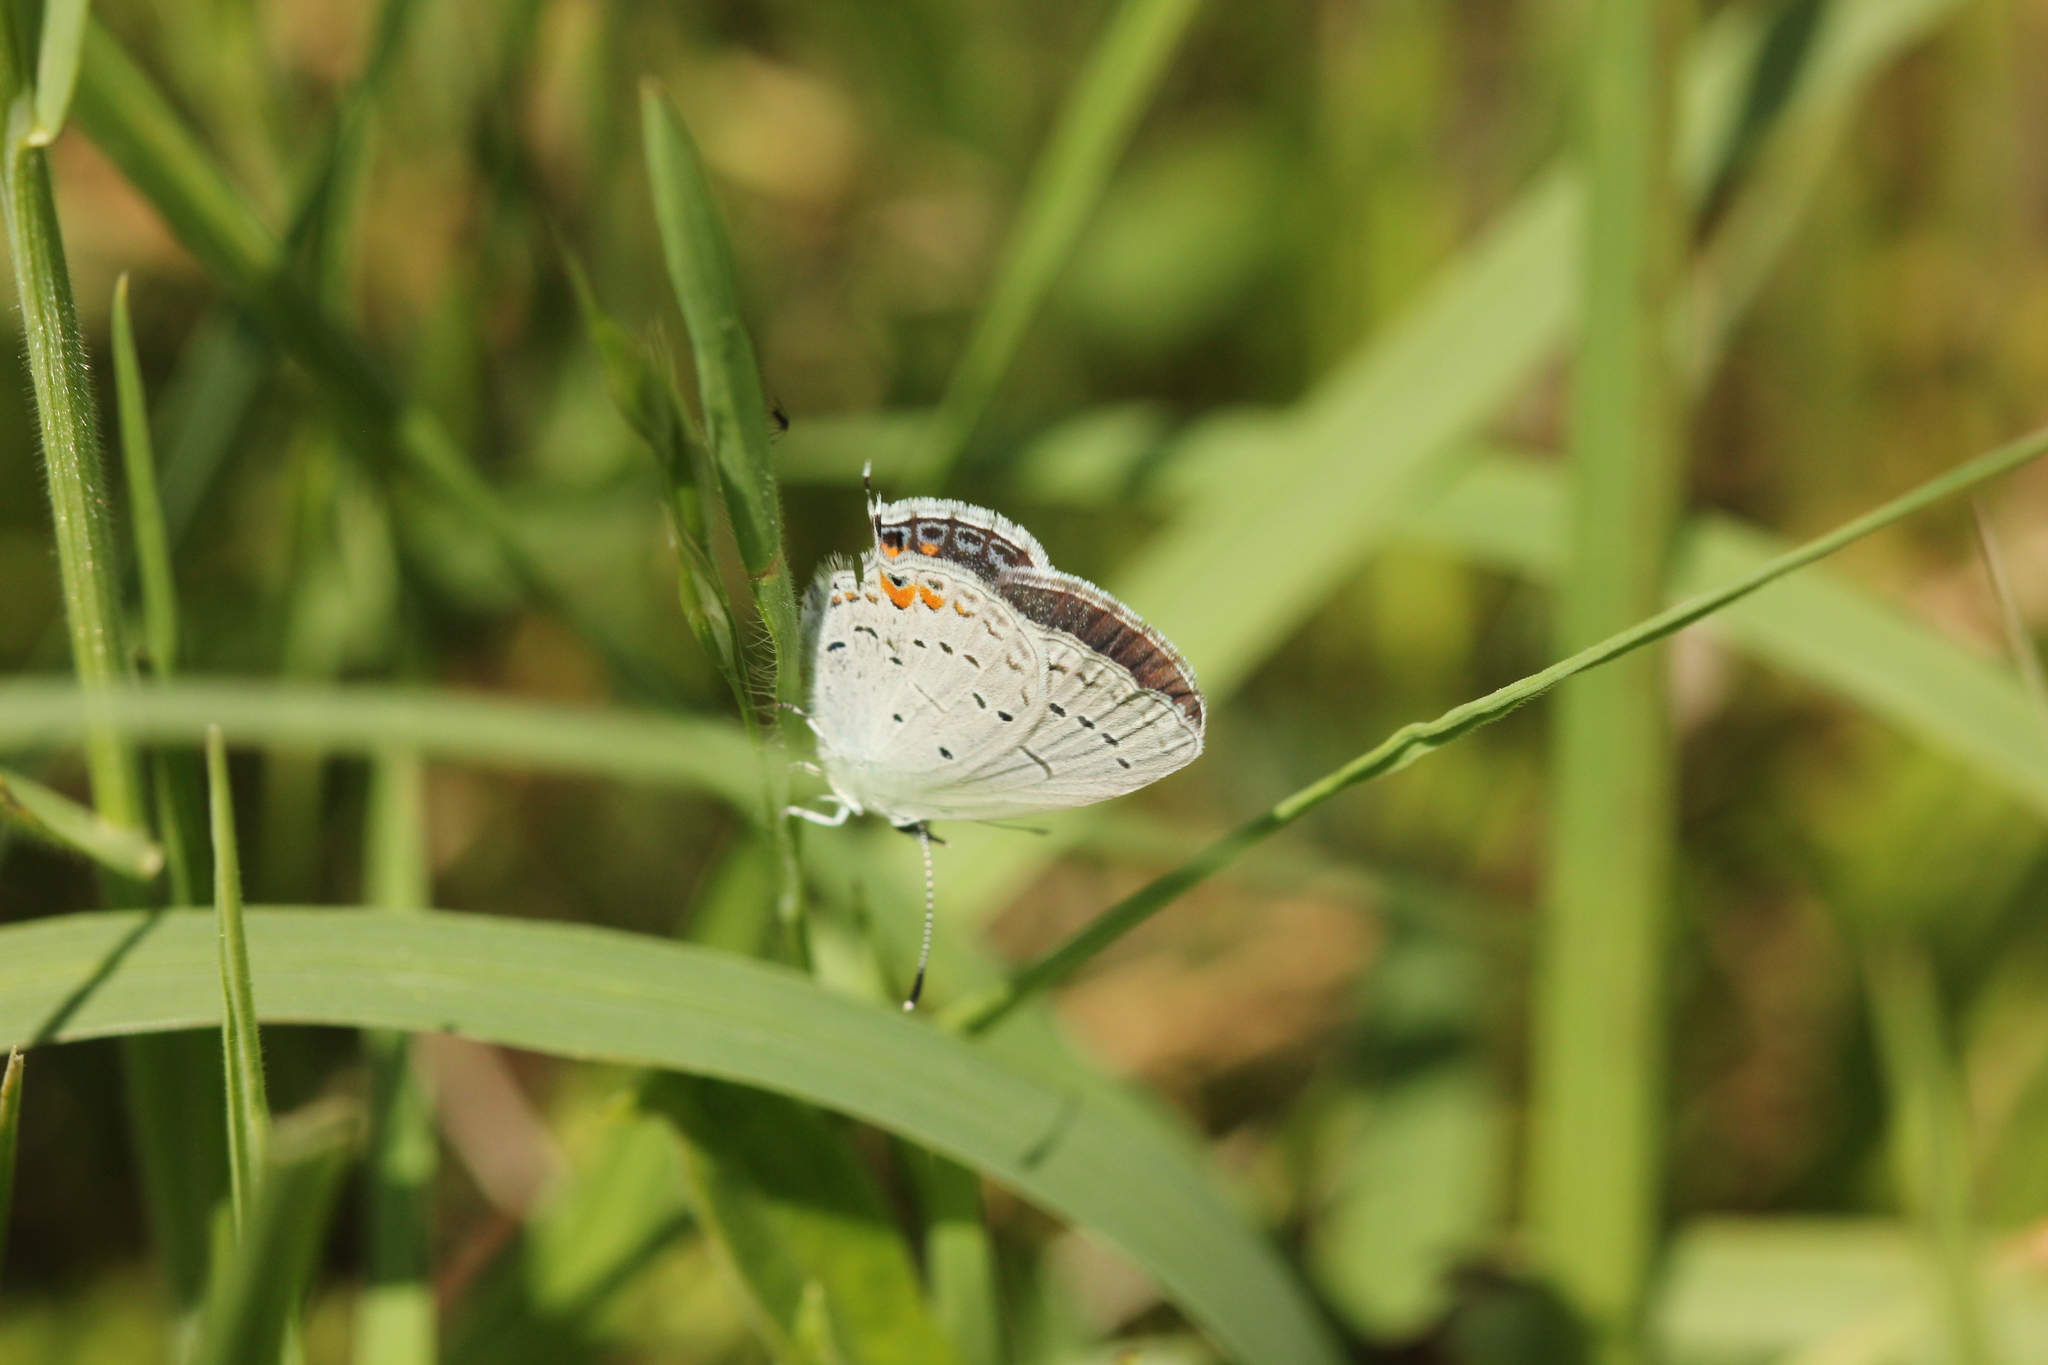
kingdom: Animalia
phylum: Arthropoda
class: Insecta
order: Lepidoptera
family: Lycaenidae
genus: Elkalyce
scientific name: Elkalyce comyntas
